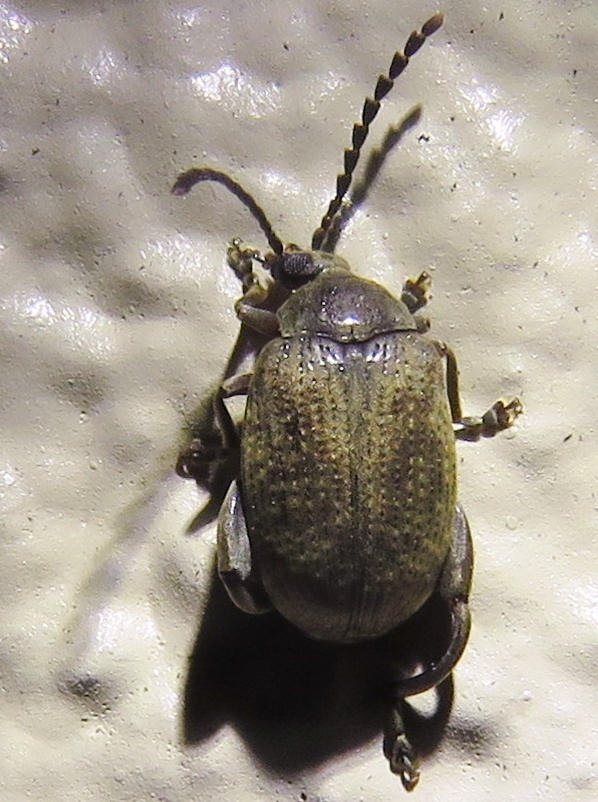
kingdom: Animalia
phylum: Arthropoda
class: Insecta
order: Coleoptera
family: Chrysomelidae
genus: Caryobruchus
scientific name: Caryobruchus gleditsiae
